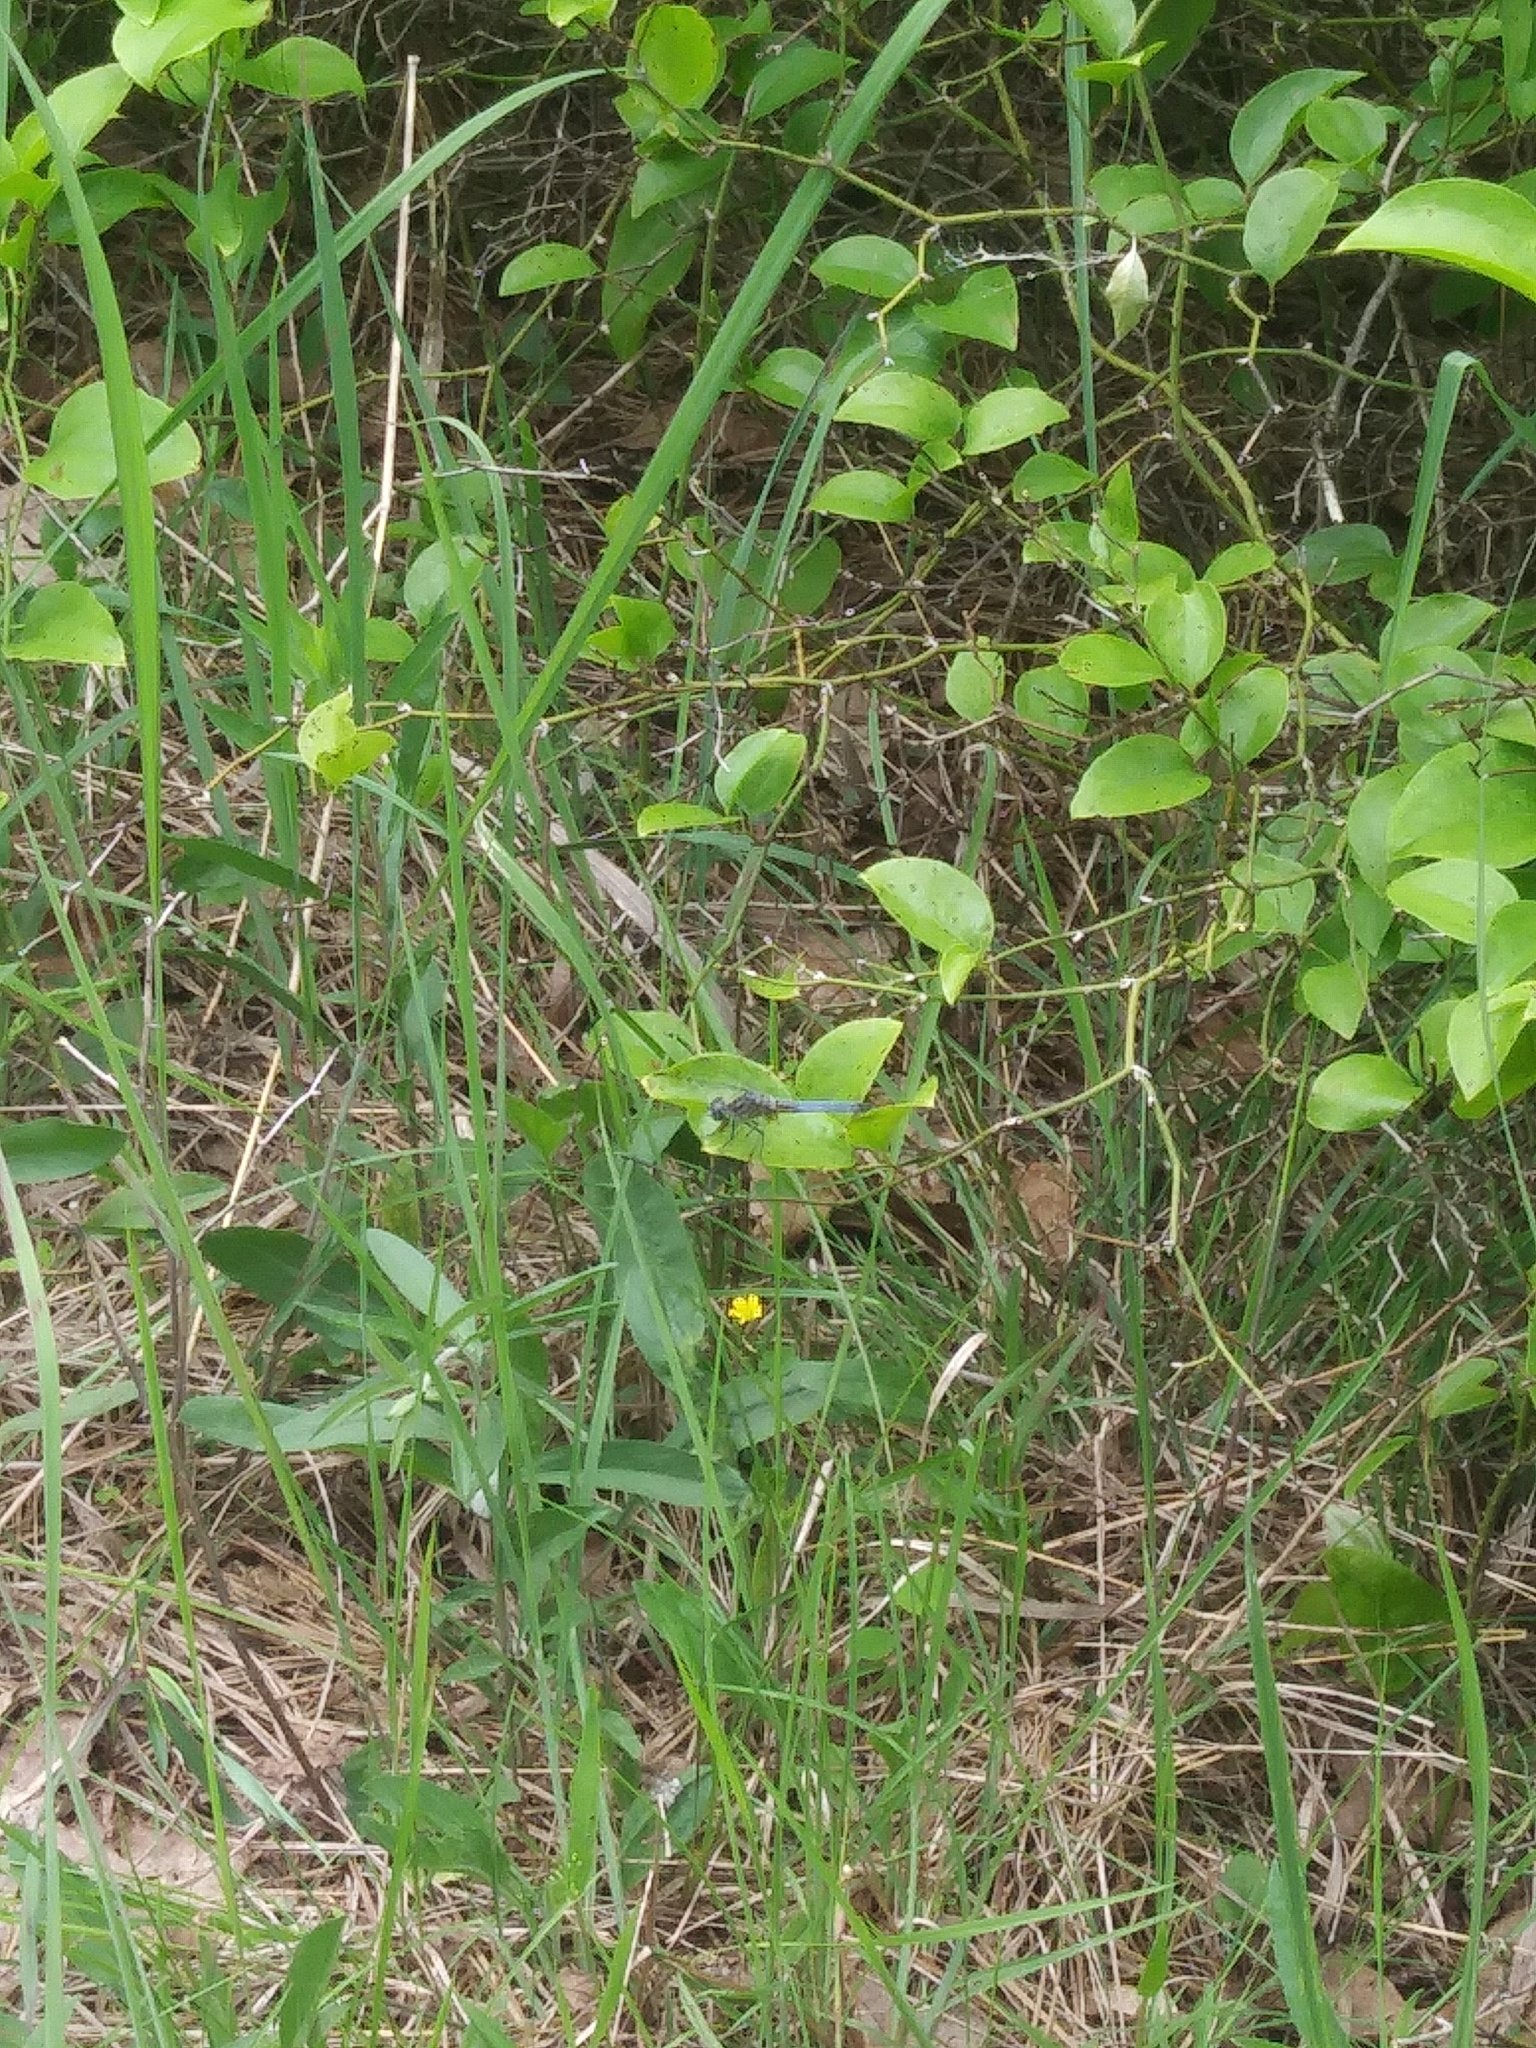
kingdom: Animalia
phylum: Arthropoda
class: Insecta
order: Odonata
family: Libellulidae
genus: Pachydiplax
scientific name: Pachydiplax longipennis
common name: Blue dasher
